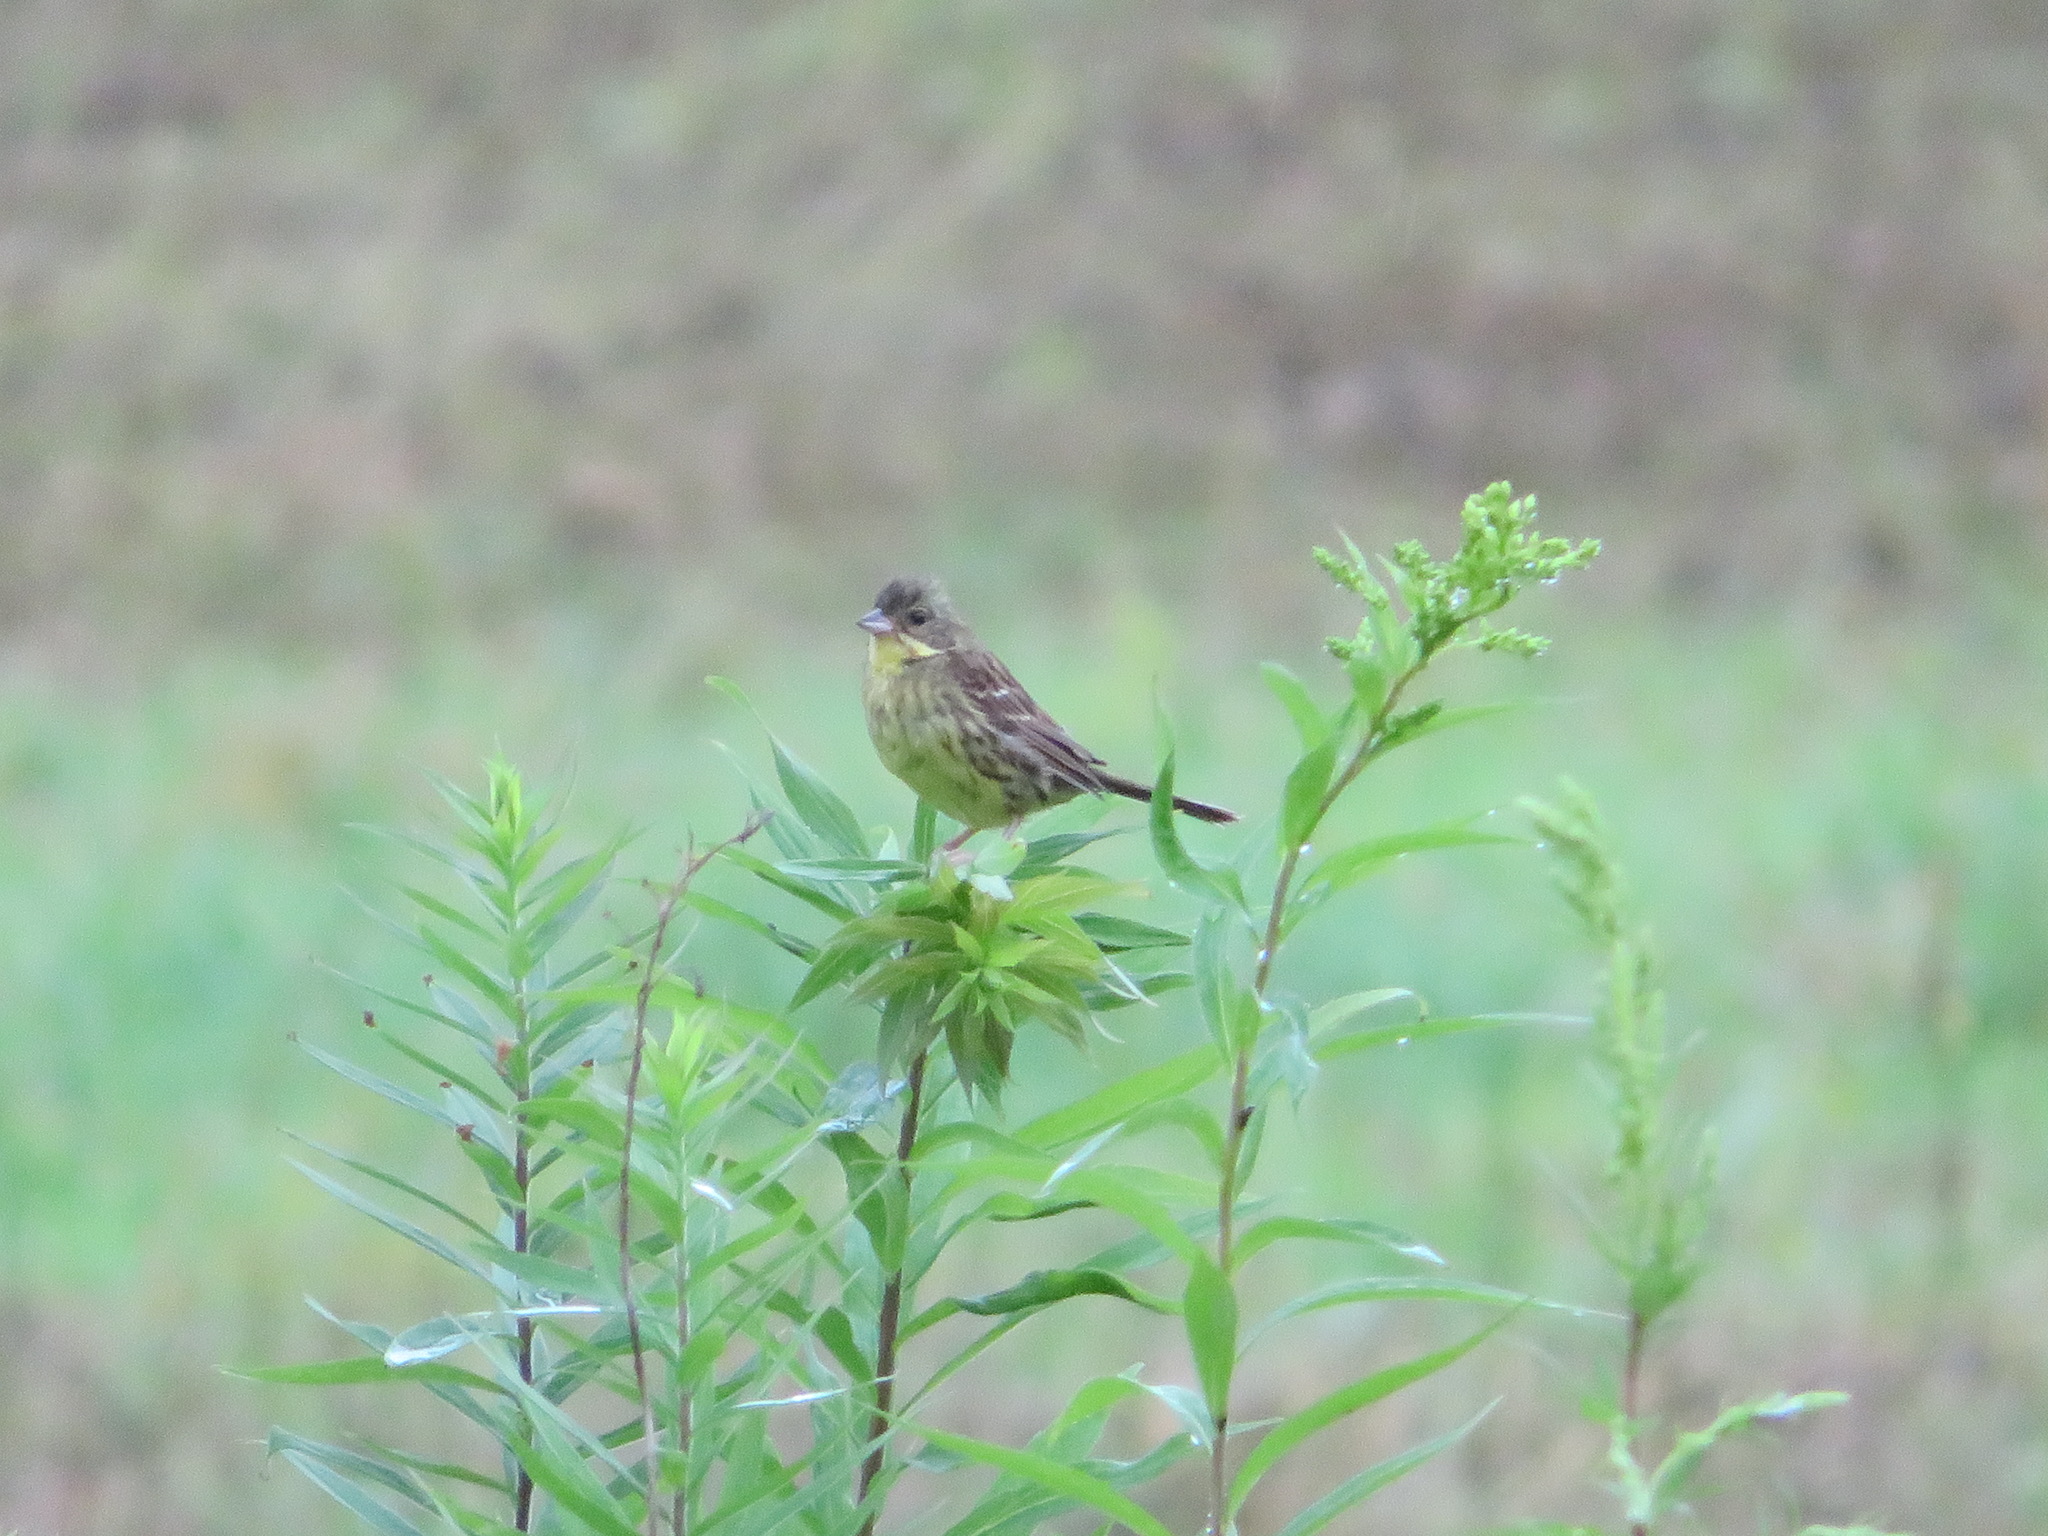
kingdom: Animalia
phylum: Chordata
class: Aves
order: Passeriformes
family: Emberizidae
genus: Emberiza
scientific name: Emberiza personata
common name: Masked bunting
